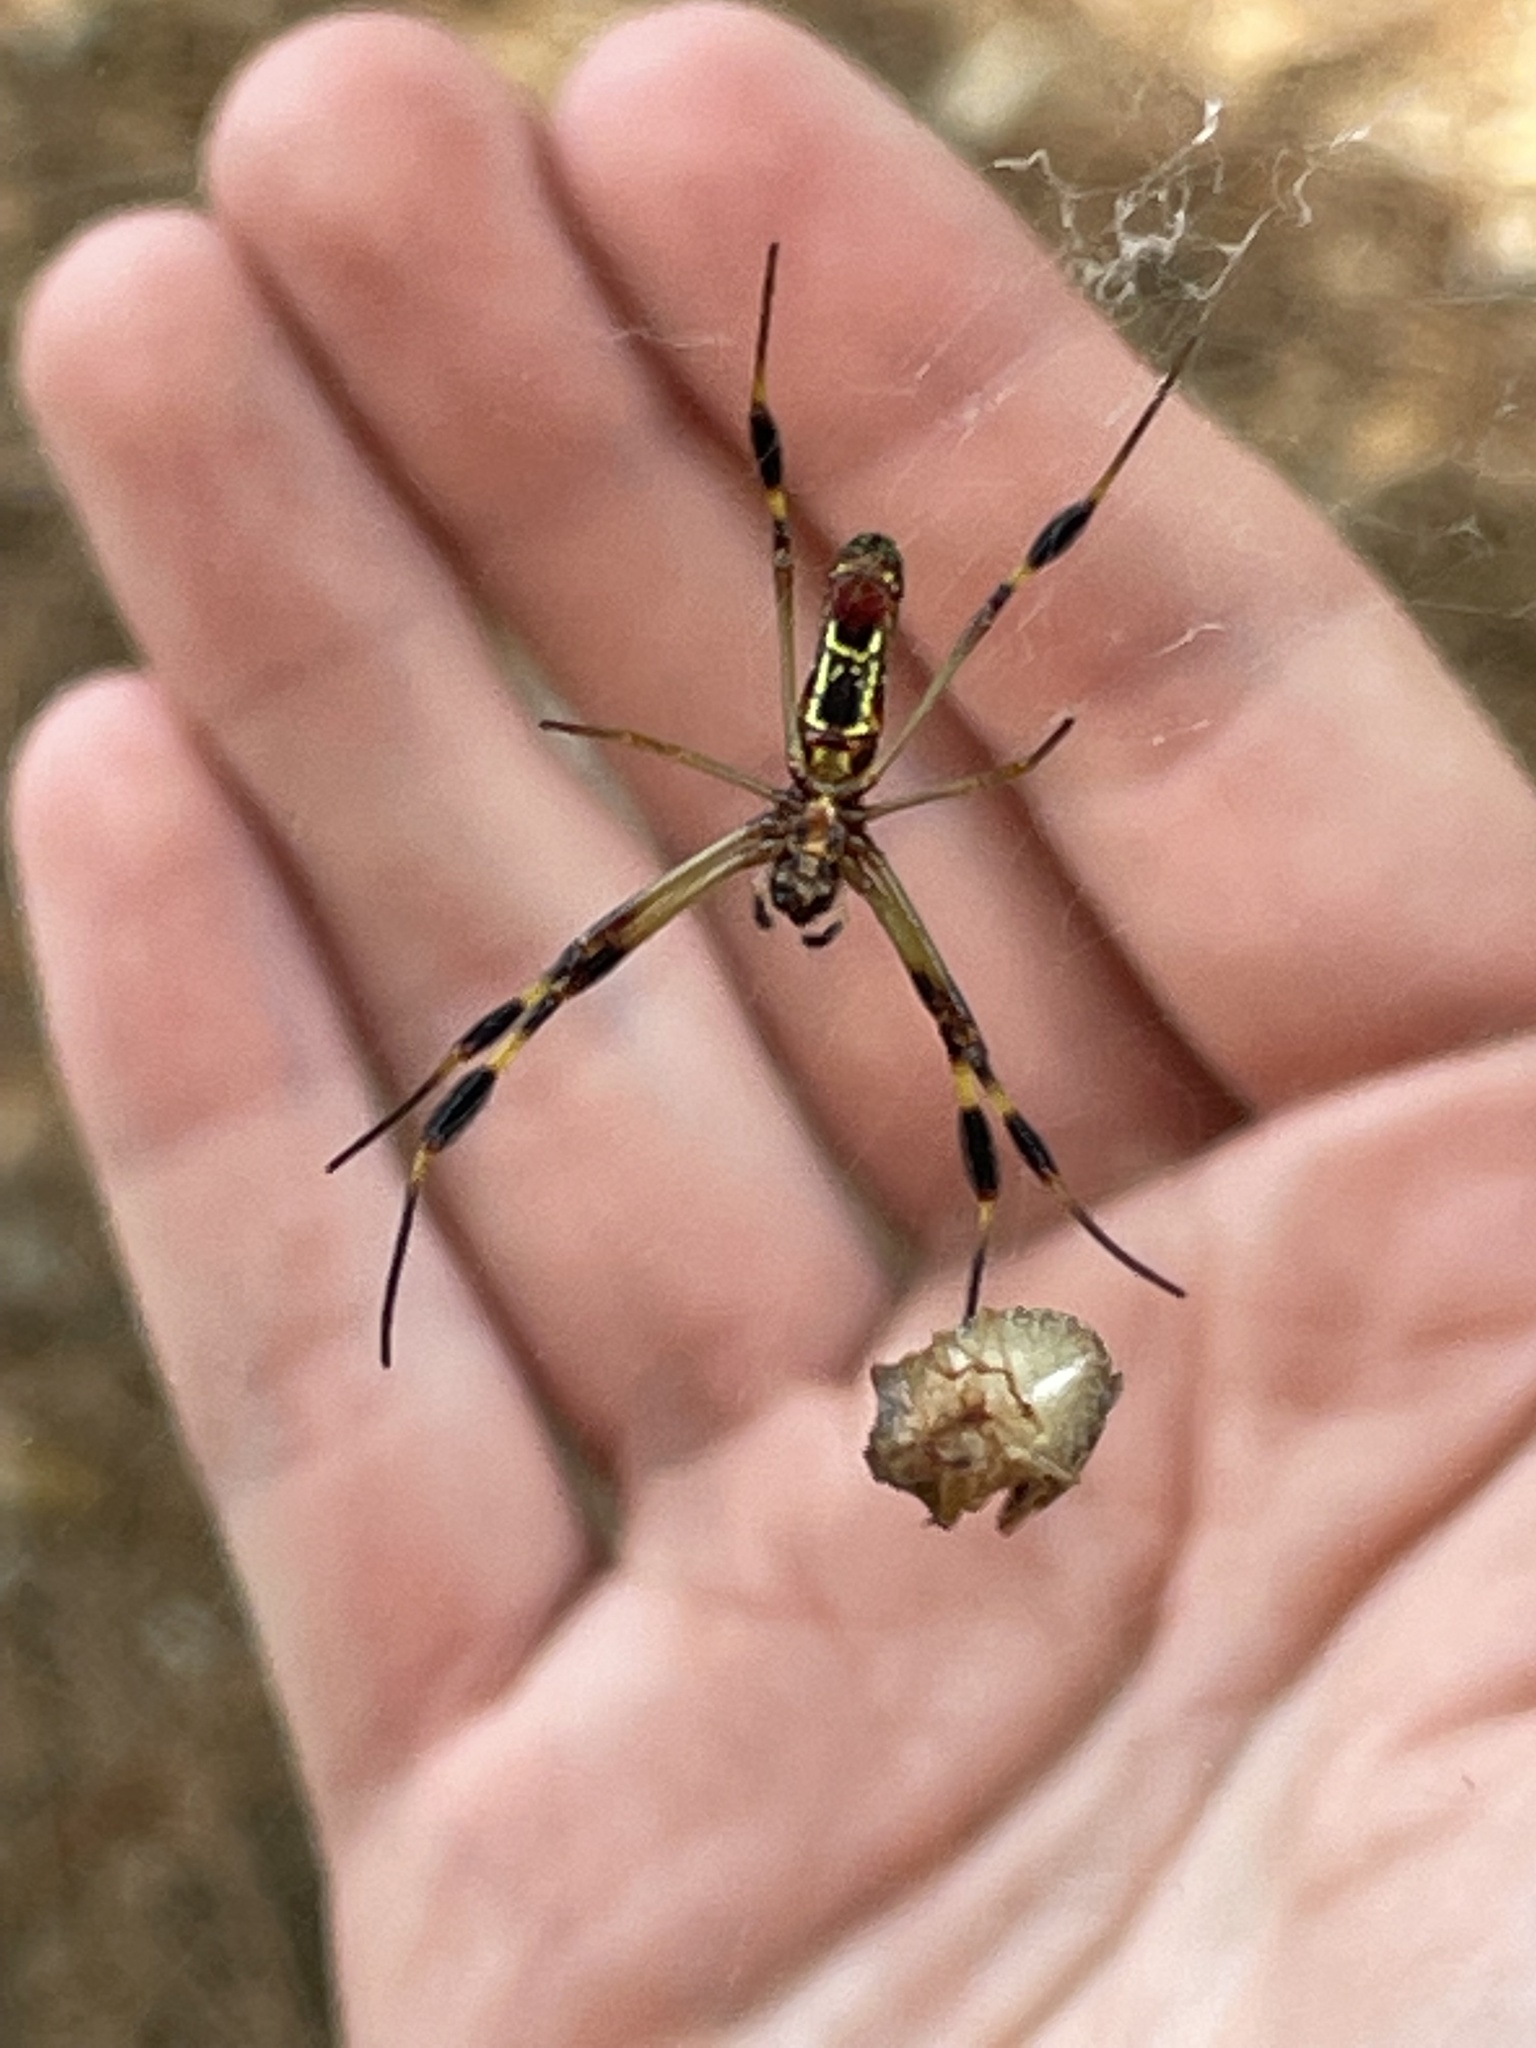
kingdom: Animalia
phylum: Arthropoda
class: Arachnida
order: Araneae
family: Araneidae
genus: Trichonephila
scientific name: Trichonephila clavipes
